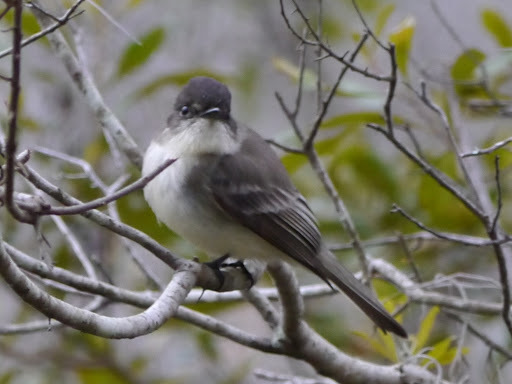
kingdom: Animalia
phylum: Chordata
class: Aves
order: Passeriformes
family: Tyrannidae
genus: Sayornis
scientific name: Sayornis phoebe
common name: Eastern phoebe
